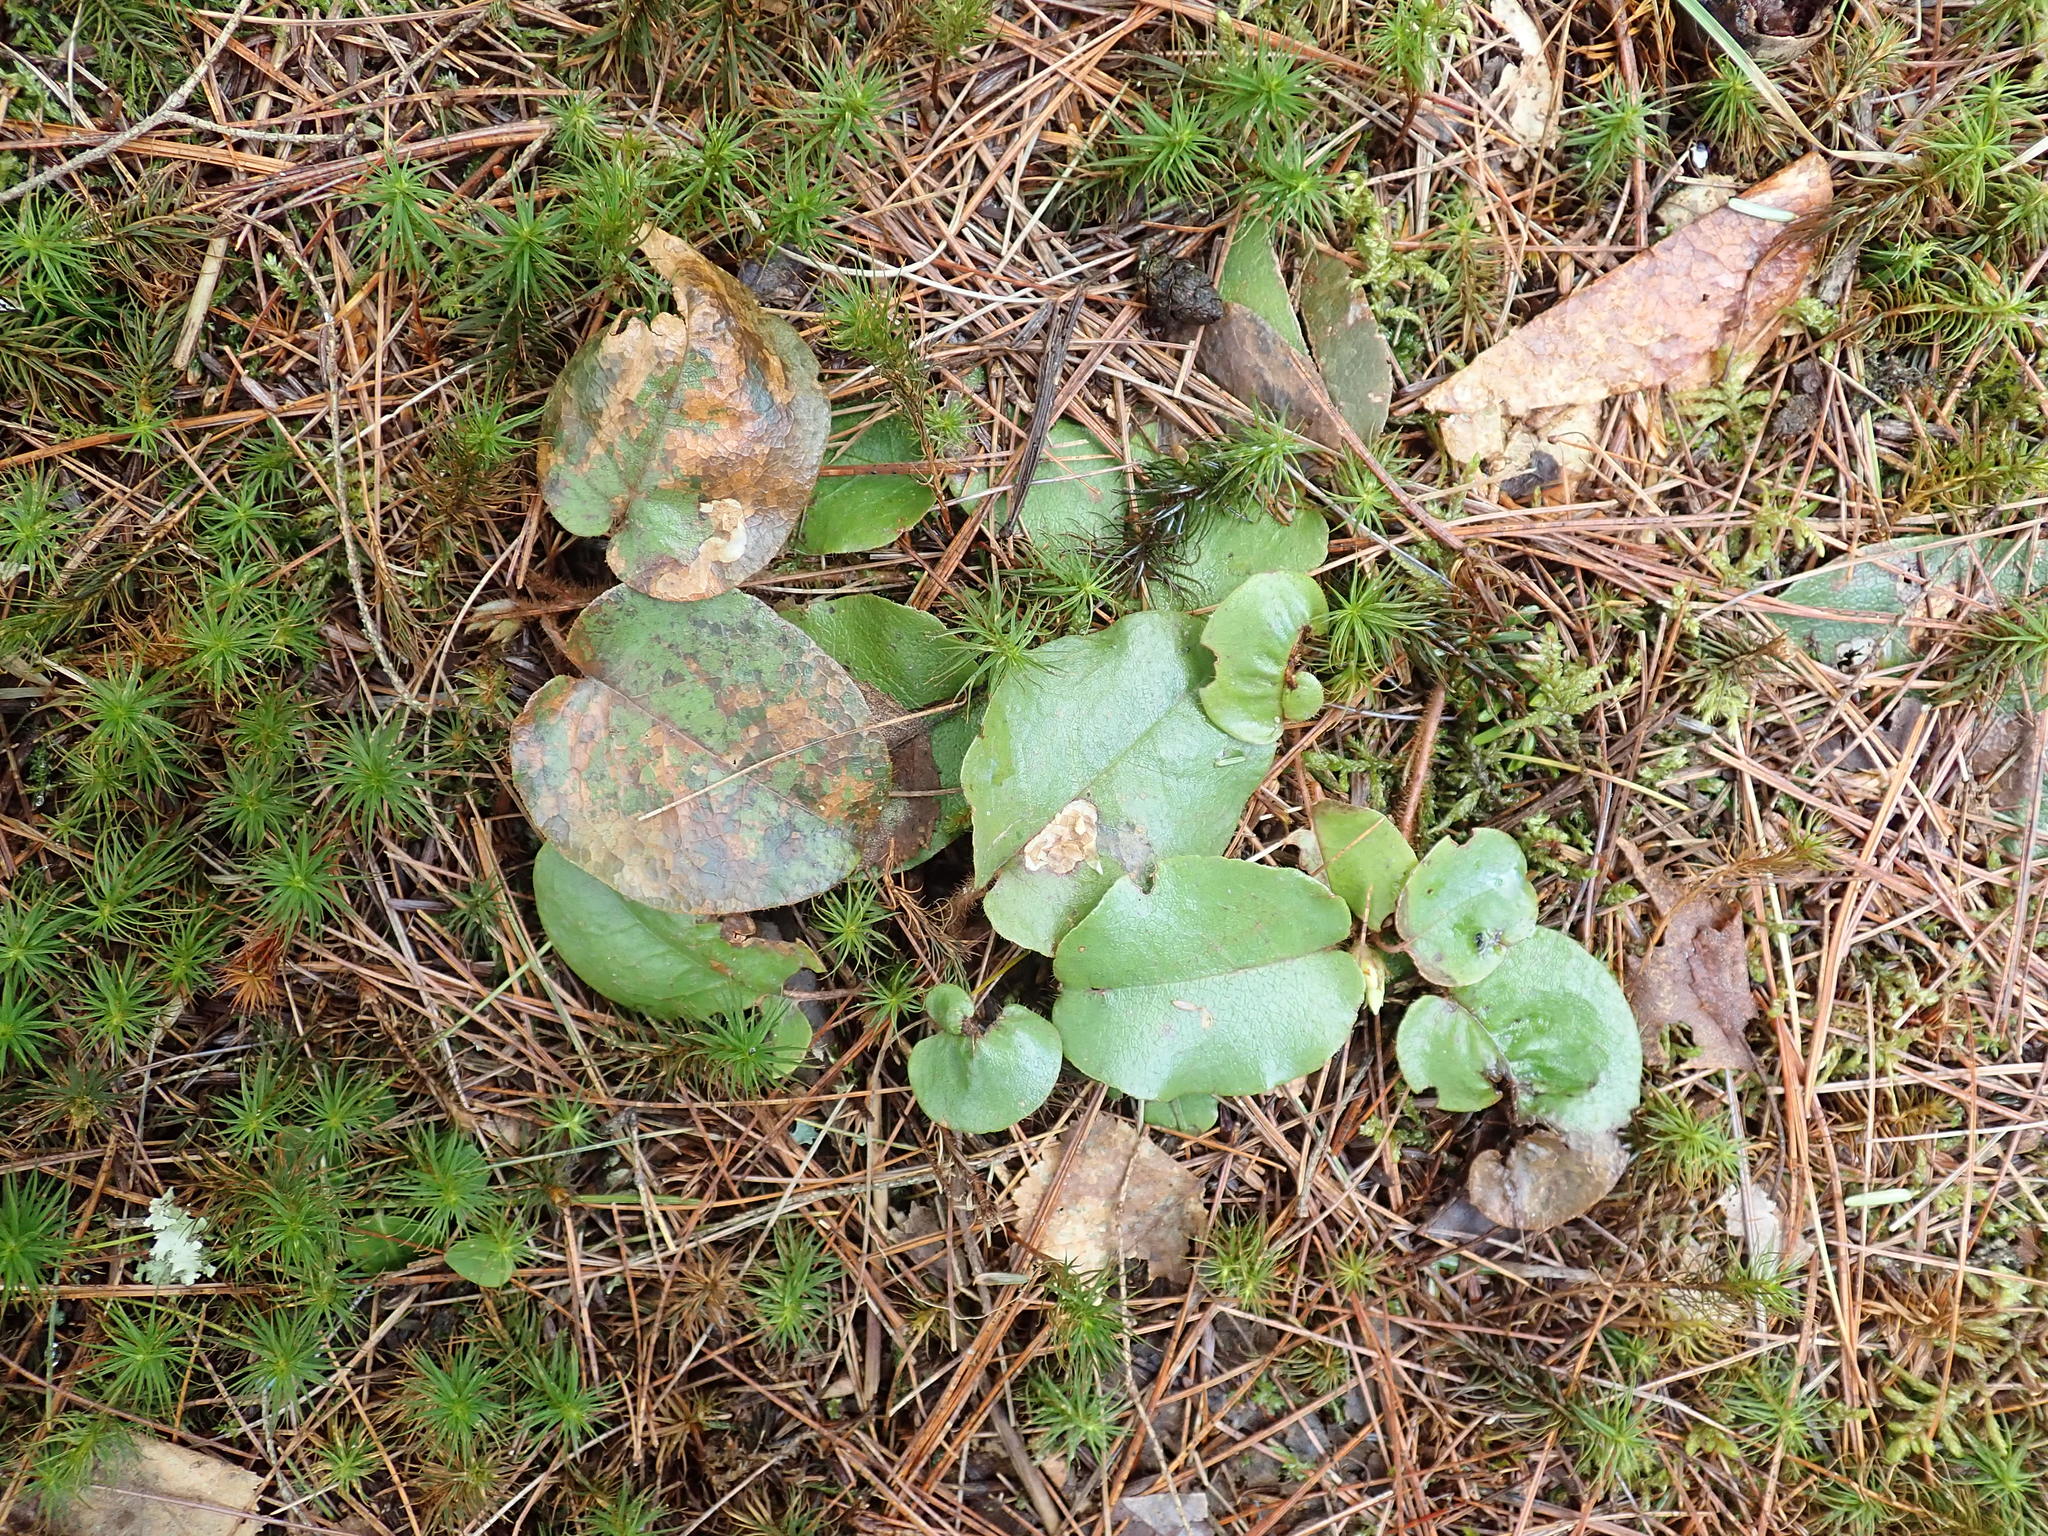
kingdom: Plantae
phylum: Tracheophyta
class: Magnoliopsida
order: Ericales
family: Ericaceae
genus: Epigaea
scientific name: Epigaea repens
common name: Gravelroot
